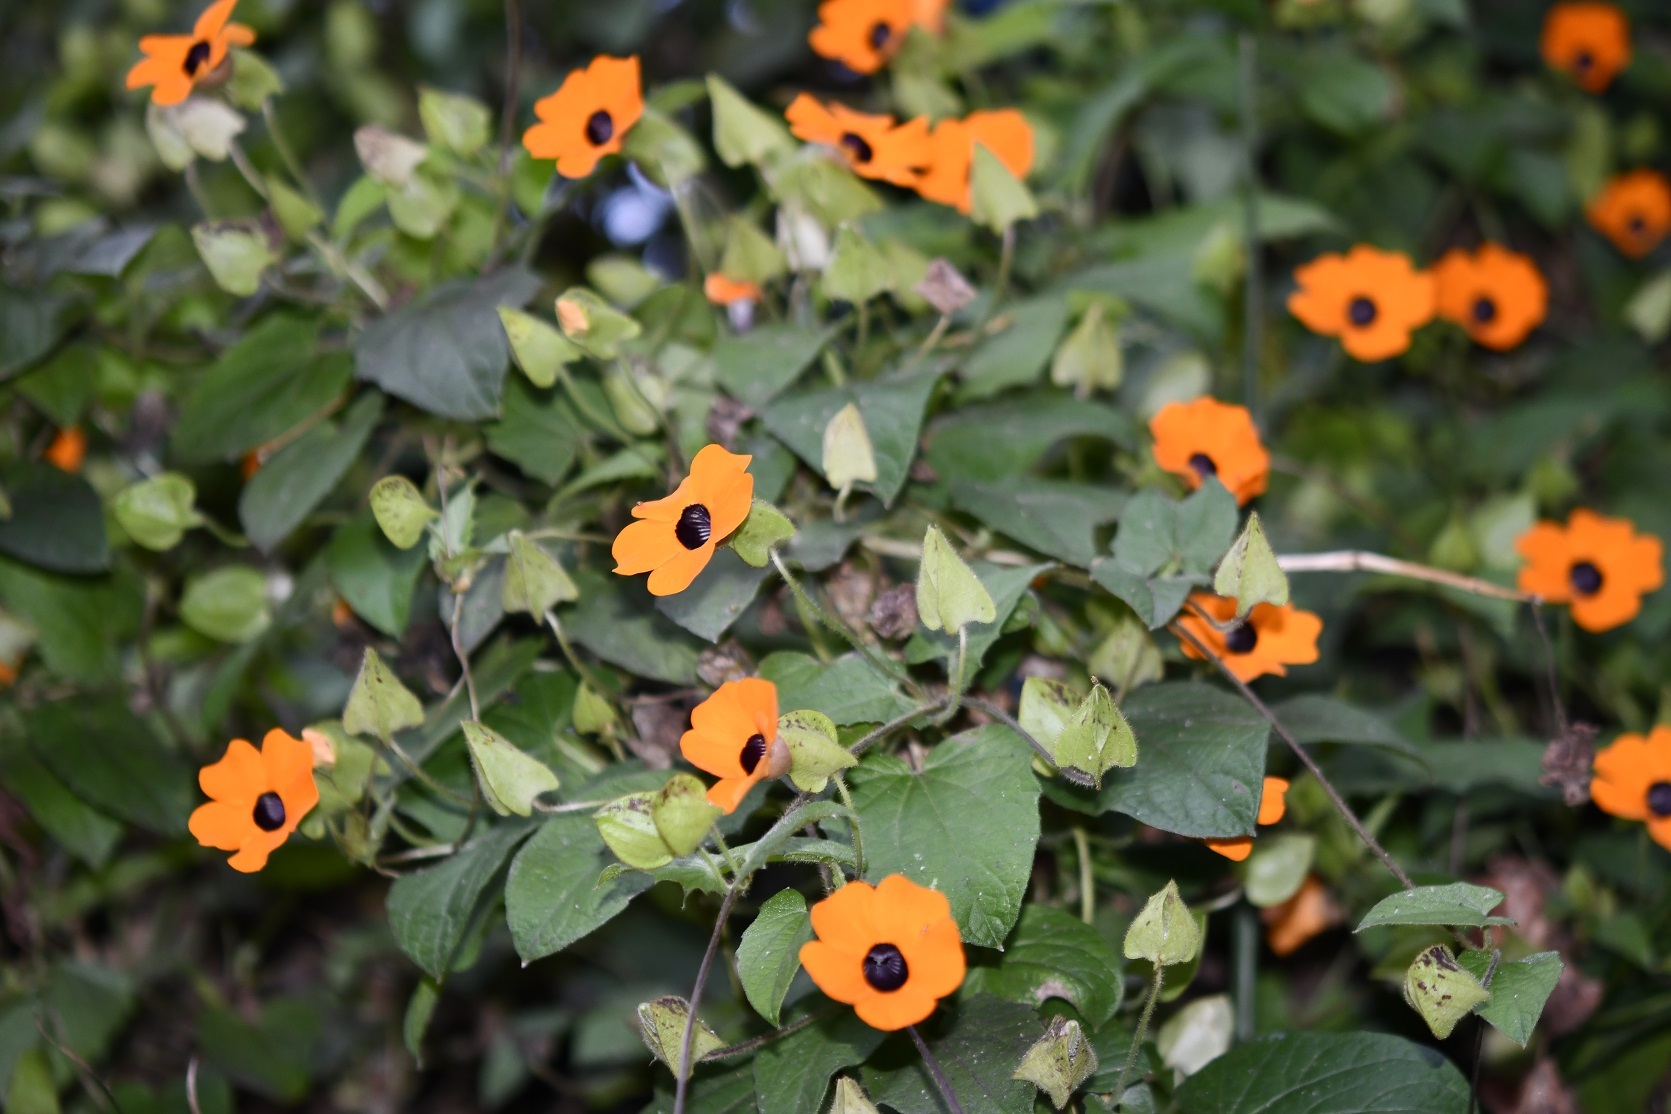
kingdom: Plantae
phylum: Tracheophyta
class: Magnoliopsida
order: Lamiales
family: Acanthaceae
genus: Thunbergia
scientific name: Thunbergia alata
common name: Blackeyed susan vine
